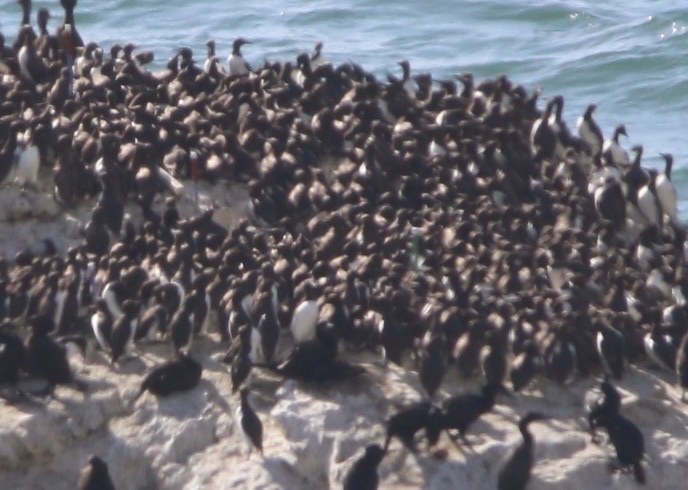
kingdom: Animalia
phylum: Chordata
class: Aves
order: Charadriiformes
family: Alcidae
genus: Uria
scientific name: Uria aalge
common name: Common murre
